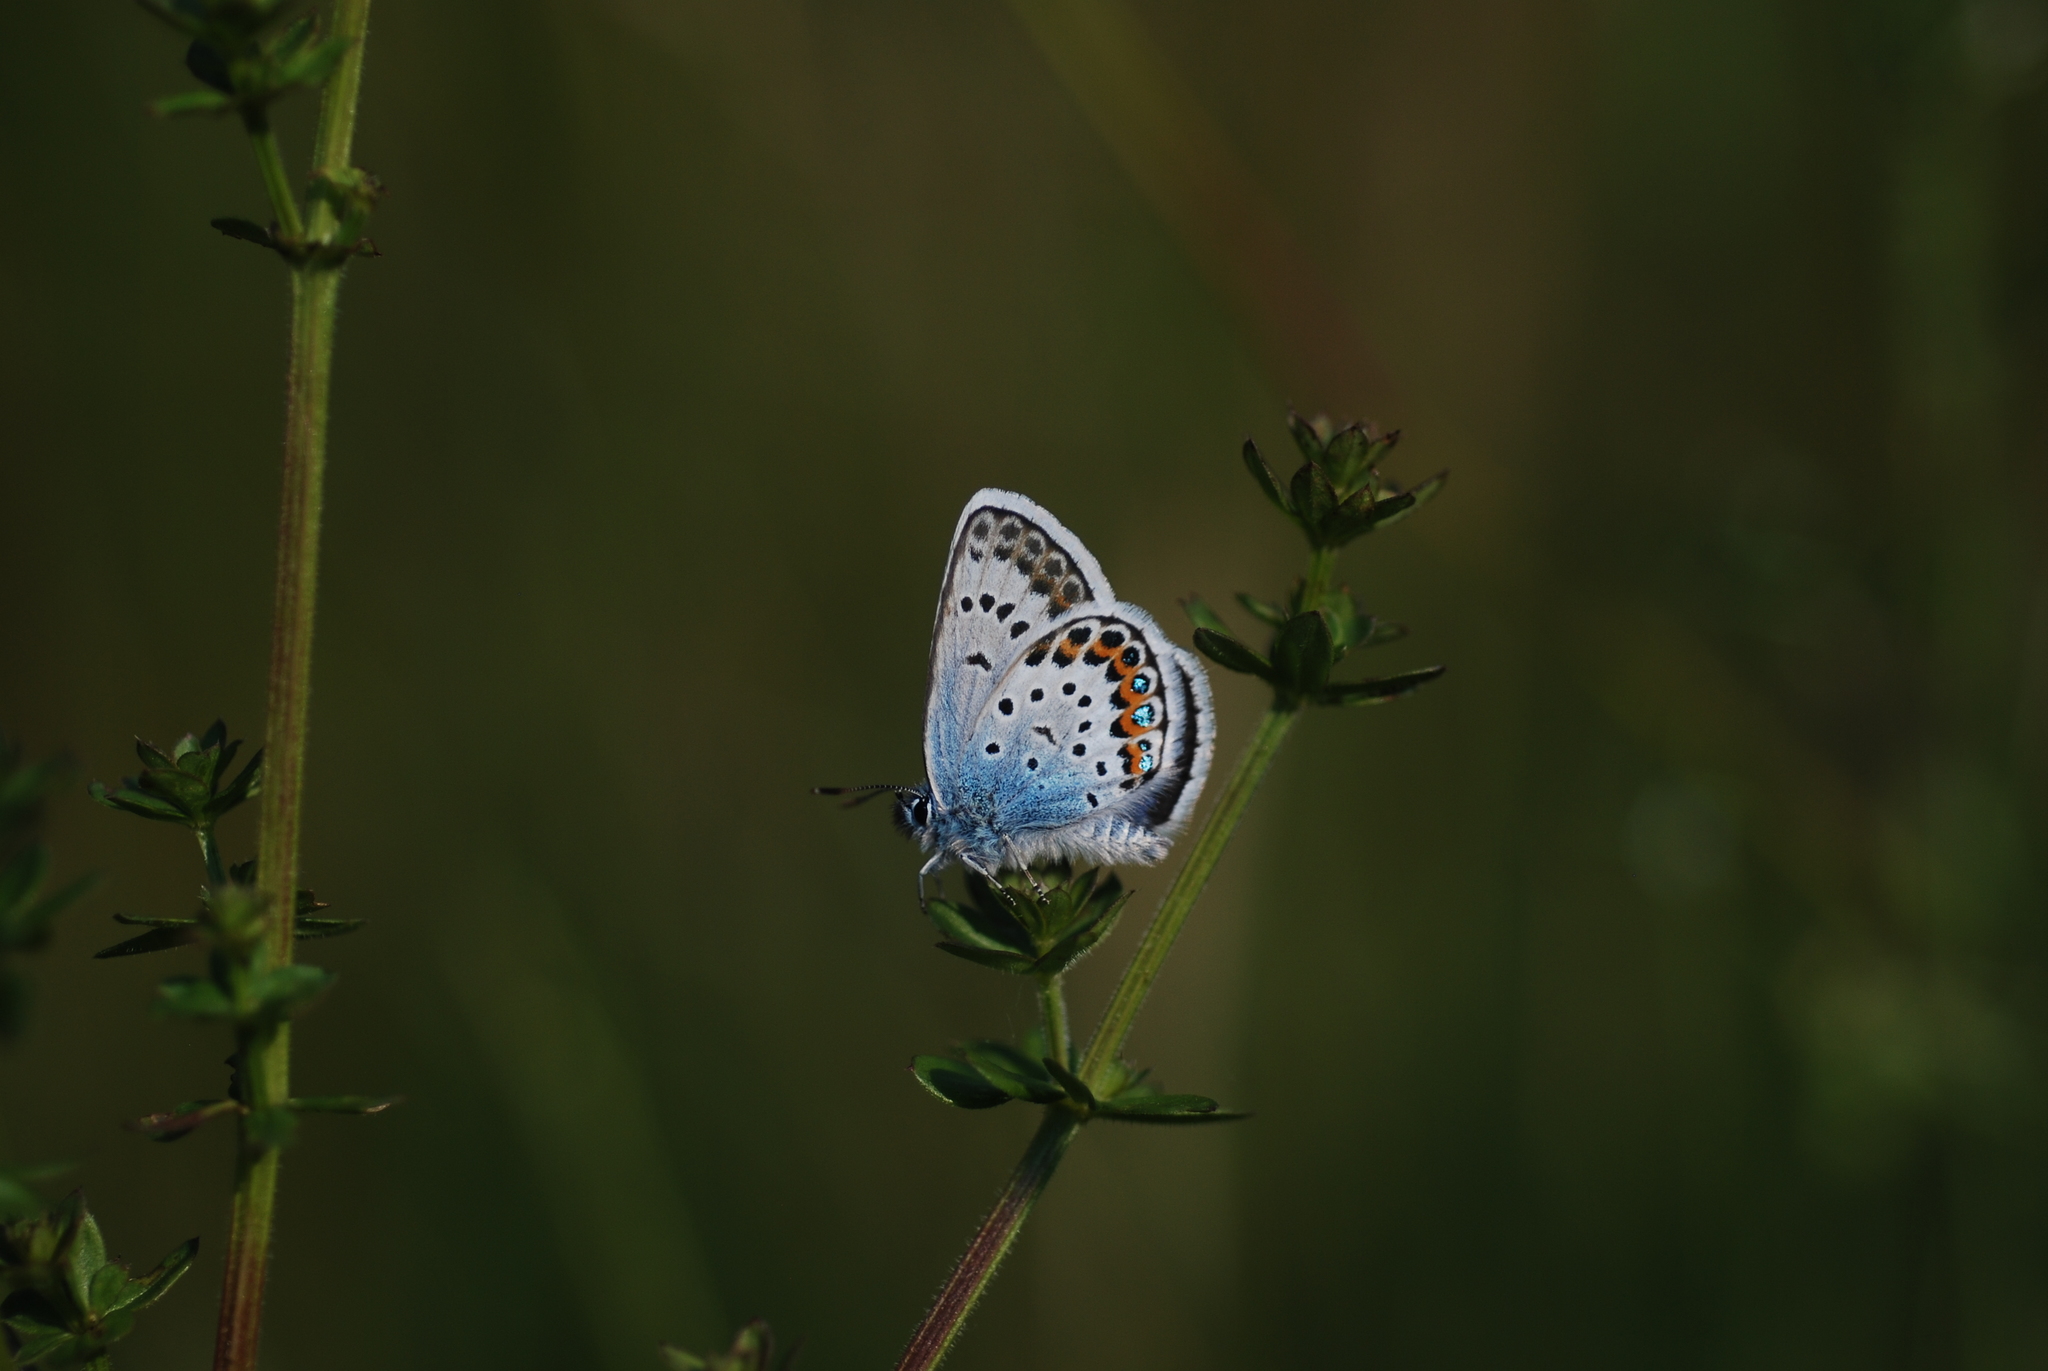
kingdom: Animalia
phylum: Arthropoda
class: Insecta
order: Lepidoptera
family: Lycaenidae
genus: Plebejus
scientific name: Plebejus argus
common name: Silver-studded blue
